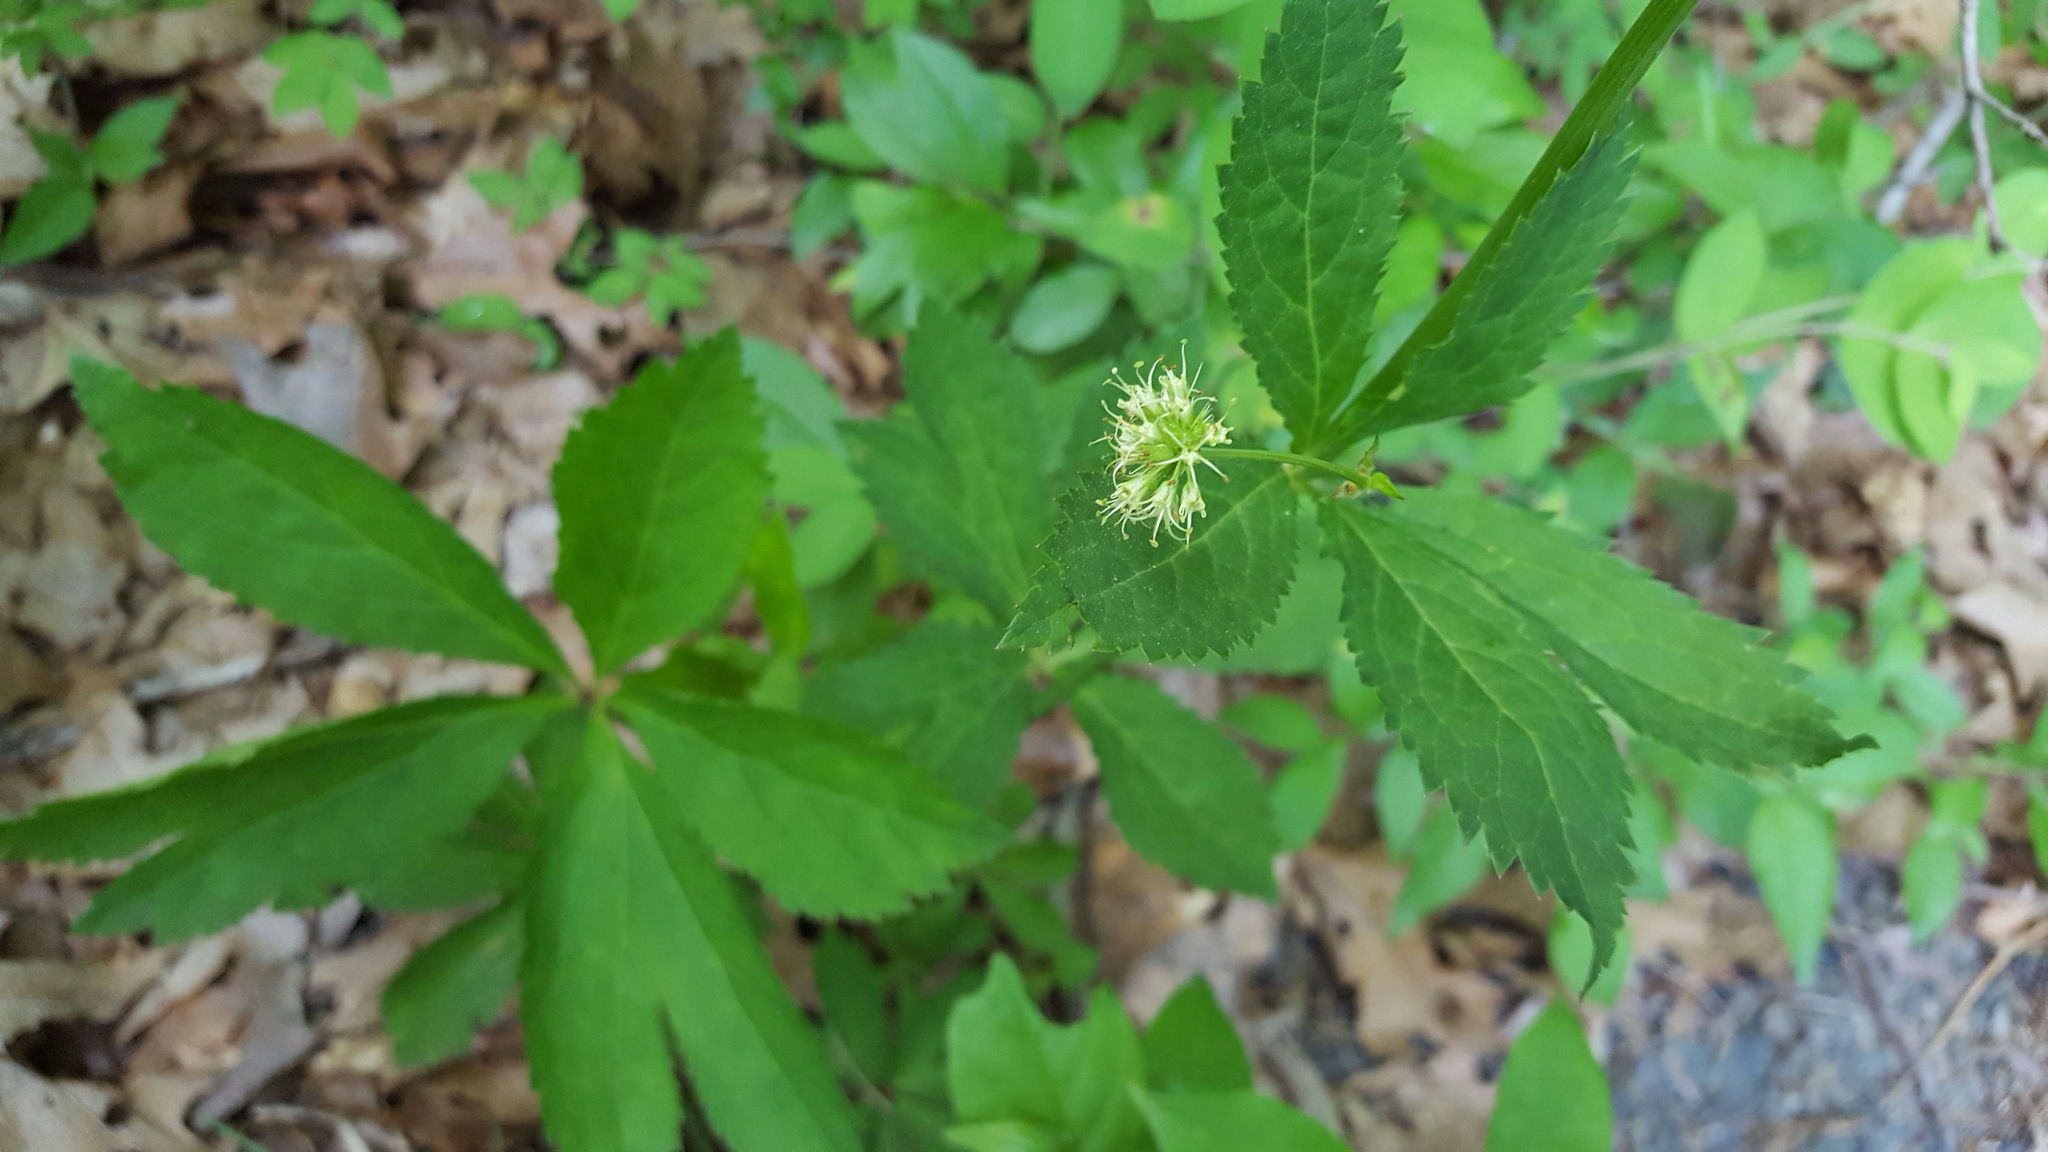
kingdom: Plantae
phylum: Tracheophyta
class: Magnoliopsida
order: Apiales
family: Apiaceae
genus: Sanicula
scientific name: Sanicula marilandica
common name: Black snakeroot
